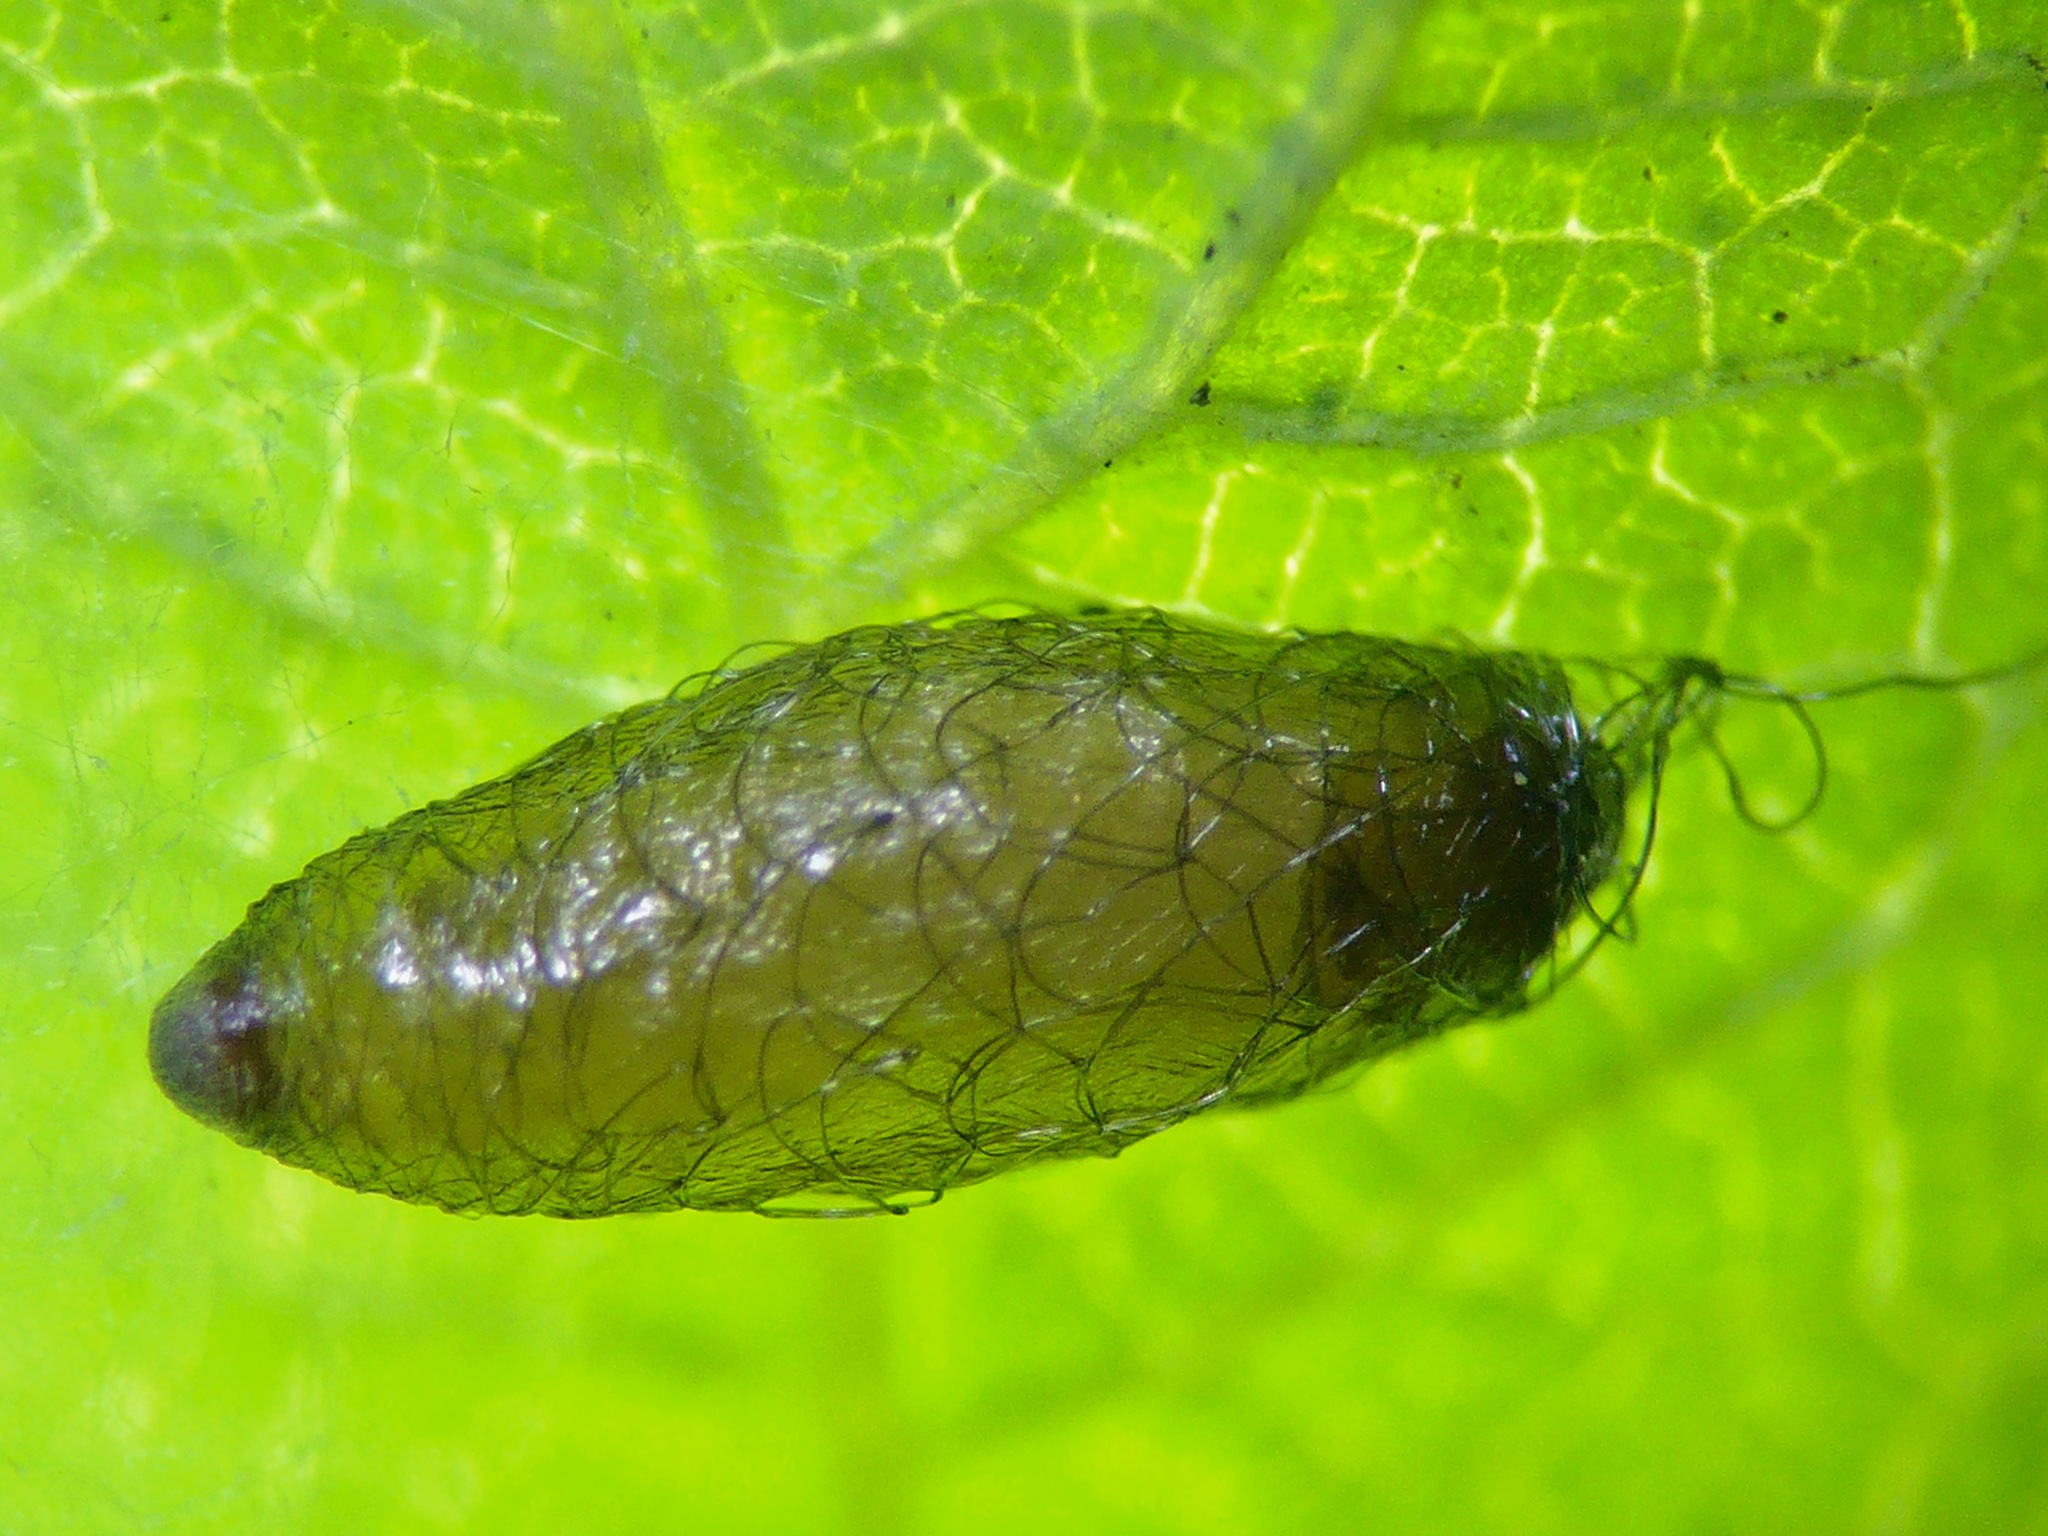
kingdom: Animalia
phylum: Arthropoda
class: Insecta
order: Hymenoptera
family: Braconidae
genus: Meteorus
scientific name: Meteorus pulchricornis
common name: Braconid wasp
